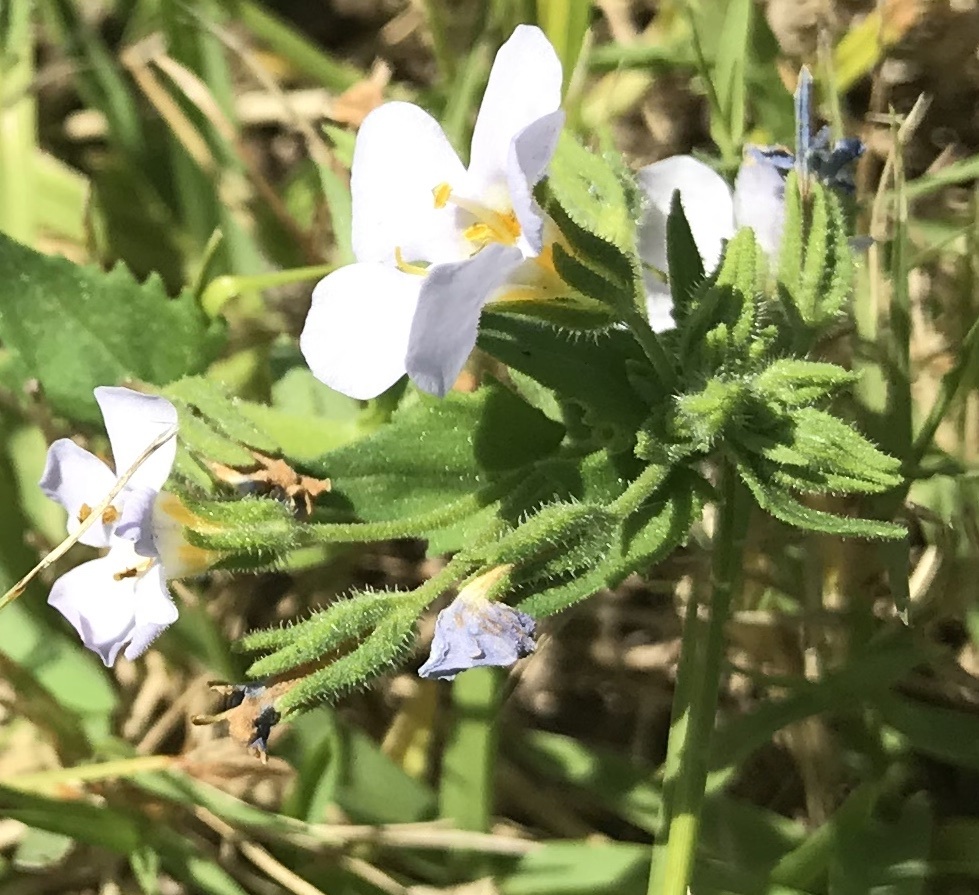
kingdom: Plantae
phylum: Tracheophyta
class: Magnoliopsida
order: Lamiales
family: Scrophulariaceae
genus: Chaenostoma
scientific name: Chaenostoma roseoflavum
